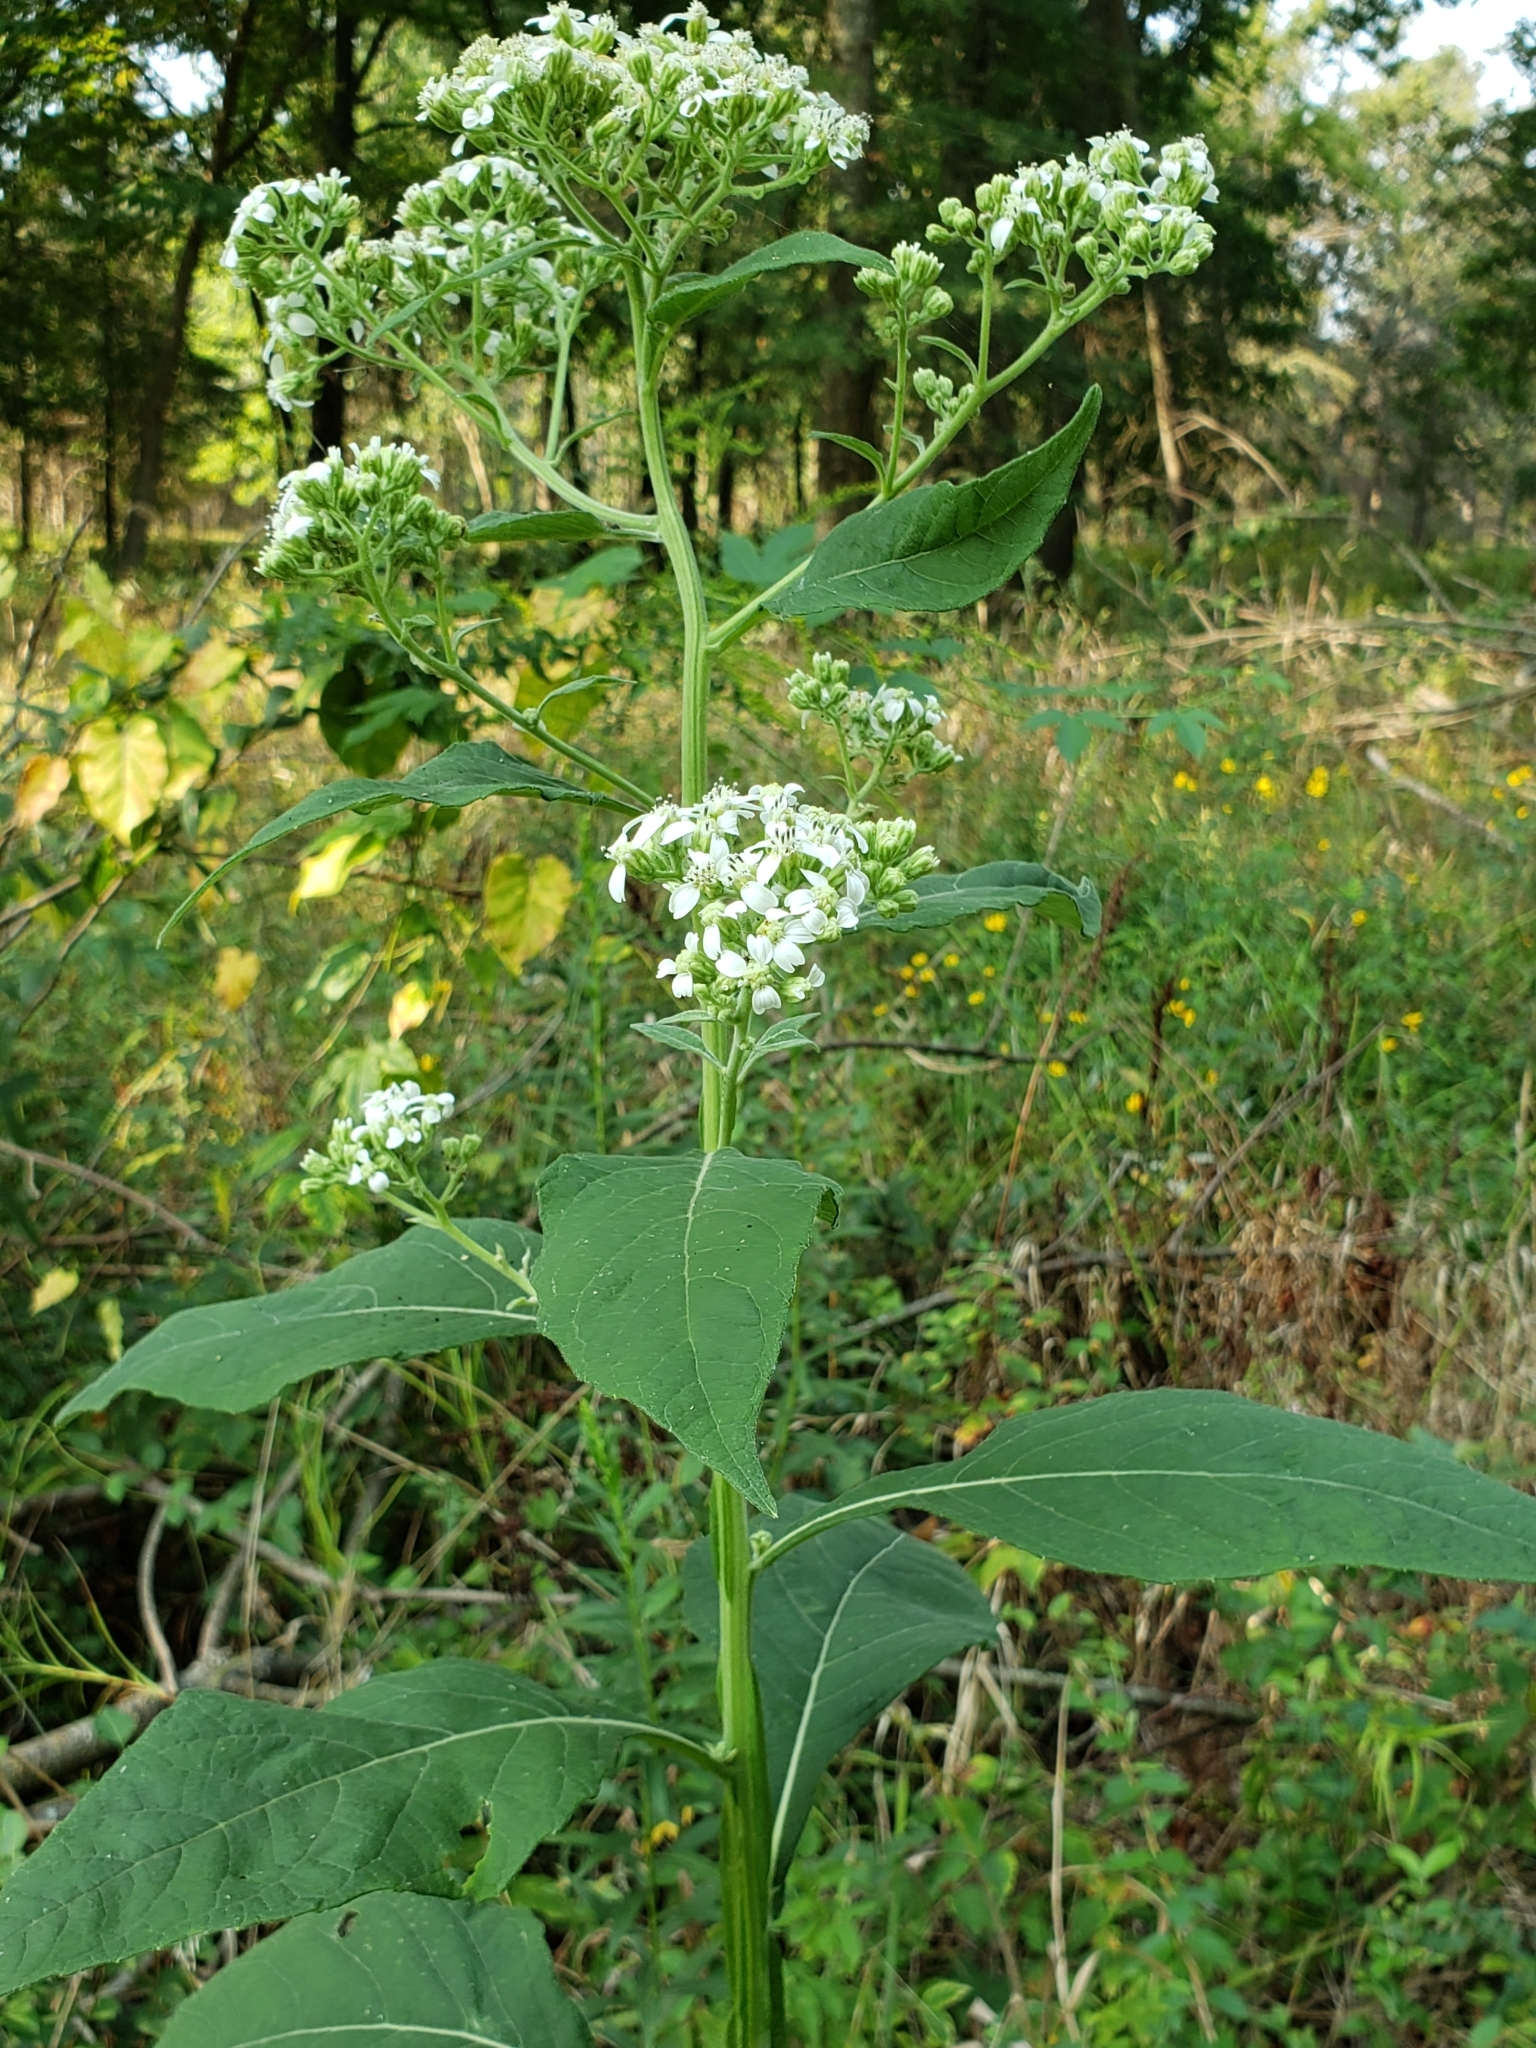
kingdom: Plantae
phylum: Tracheophyta
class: Magnoliopsida
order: Asterales
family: Asteraceae
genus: Verbesina
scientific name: Verbesina virginica
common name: Frostweed
